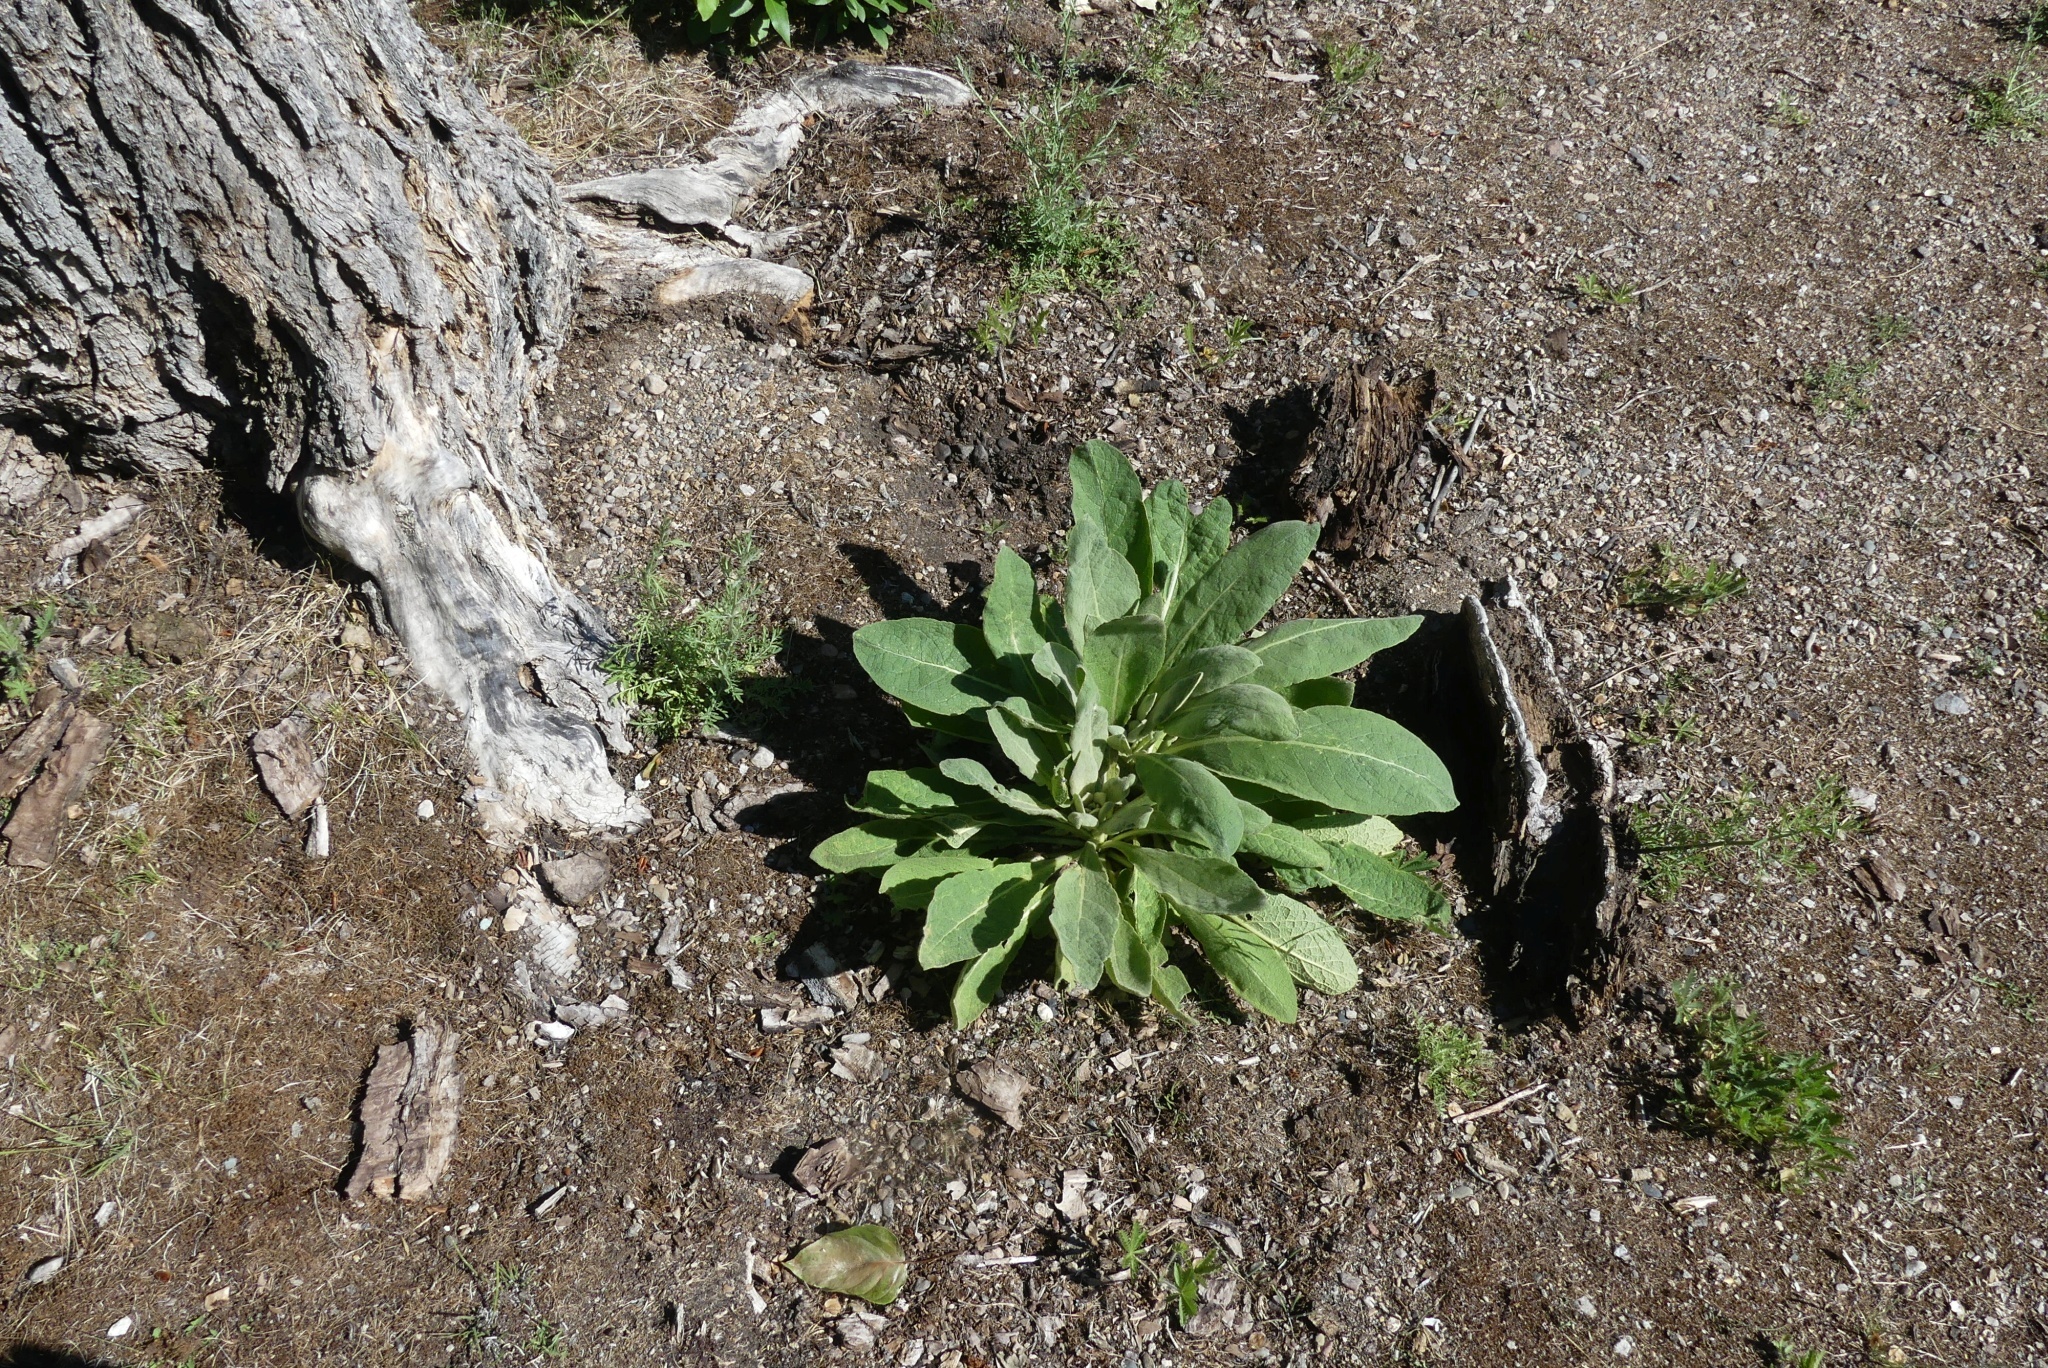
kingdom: Plantae
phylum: Tracheophyta
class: Magnoliopsida
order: Lamiales
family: Scrophulariaceae
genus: Verbascum
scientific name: Verbascum thapsus
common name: Common mullein
